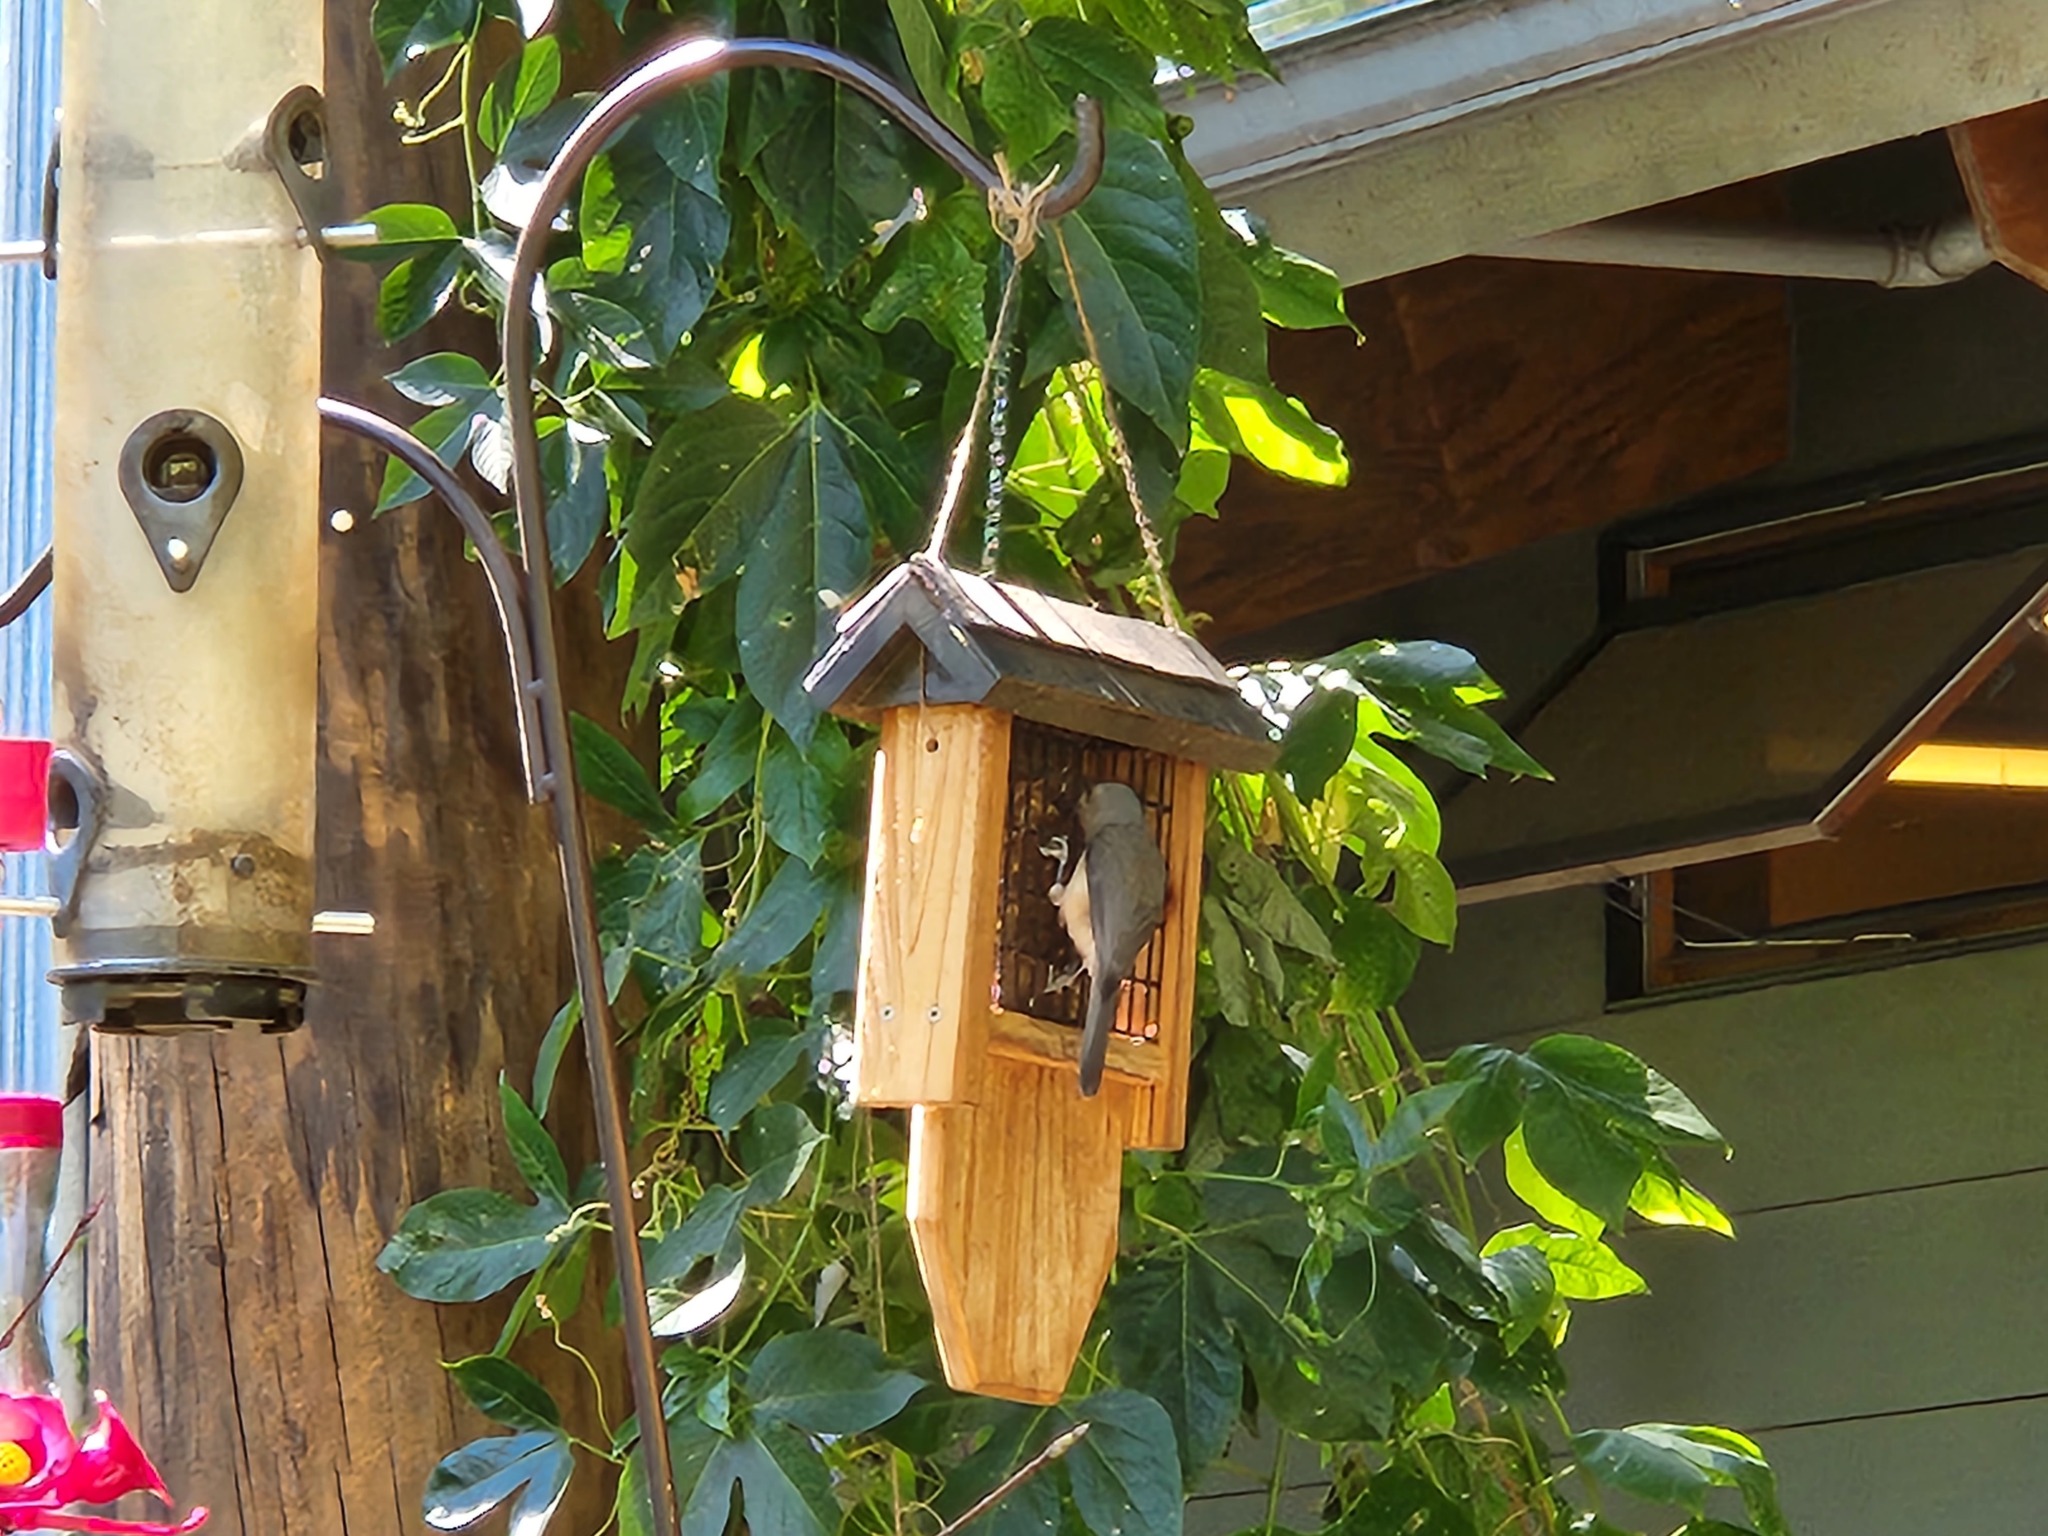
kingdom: Animalia
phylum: Chordata
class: Aves
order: Passeriformes
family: Paridae
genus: Baeolophus
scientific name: Baeolophus bicolor
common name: Tufted titmouse
